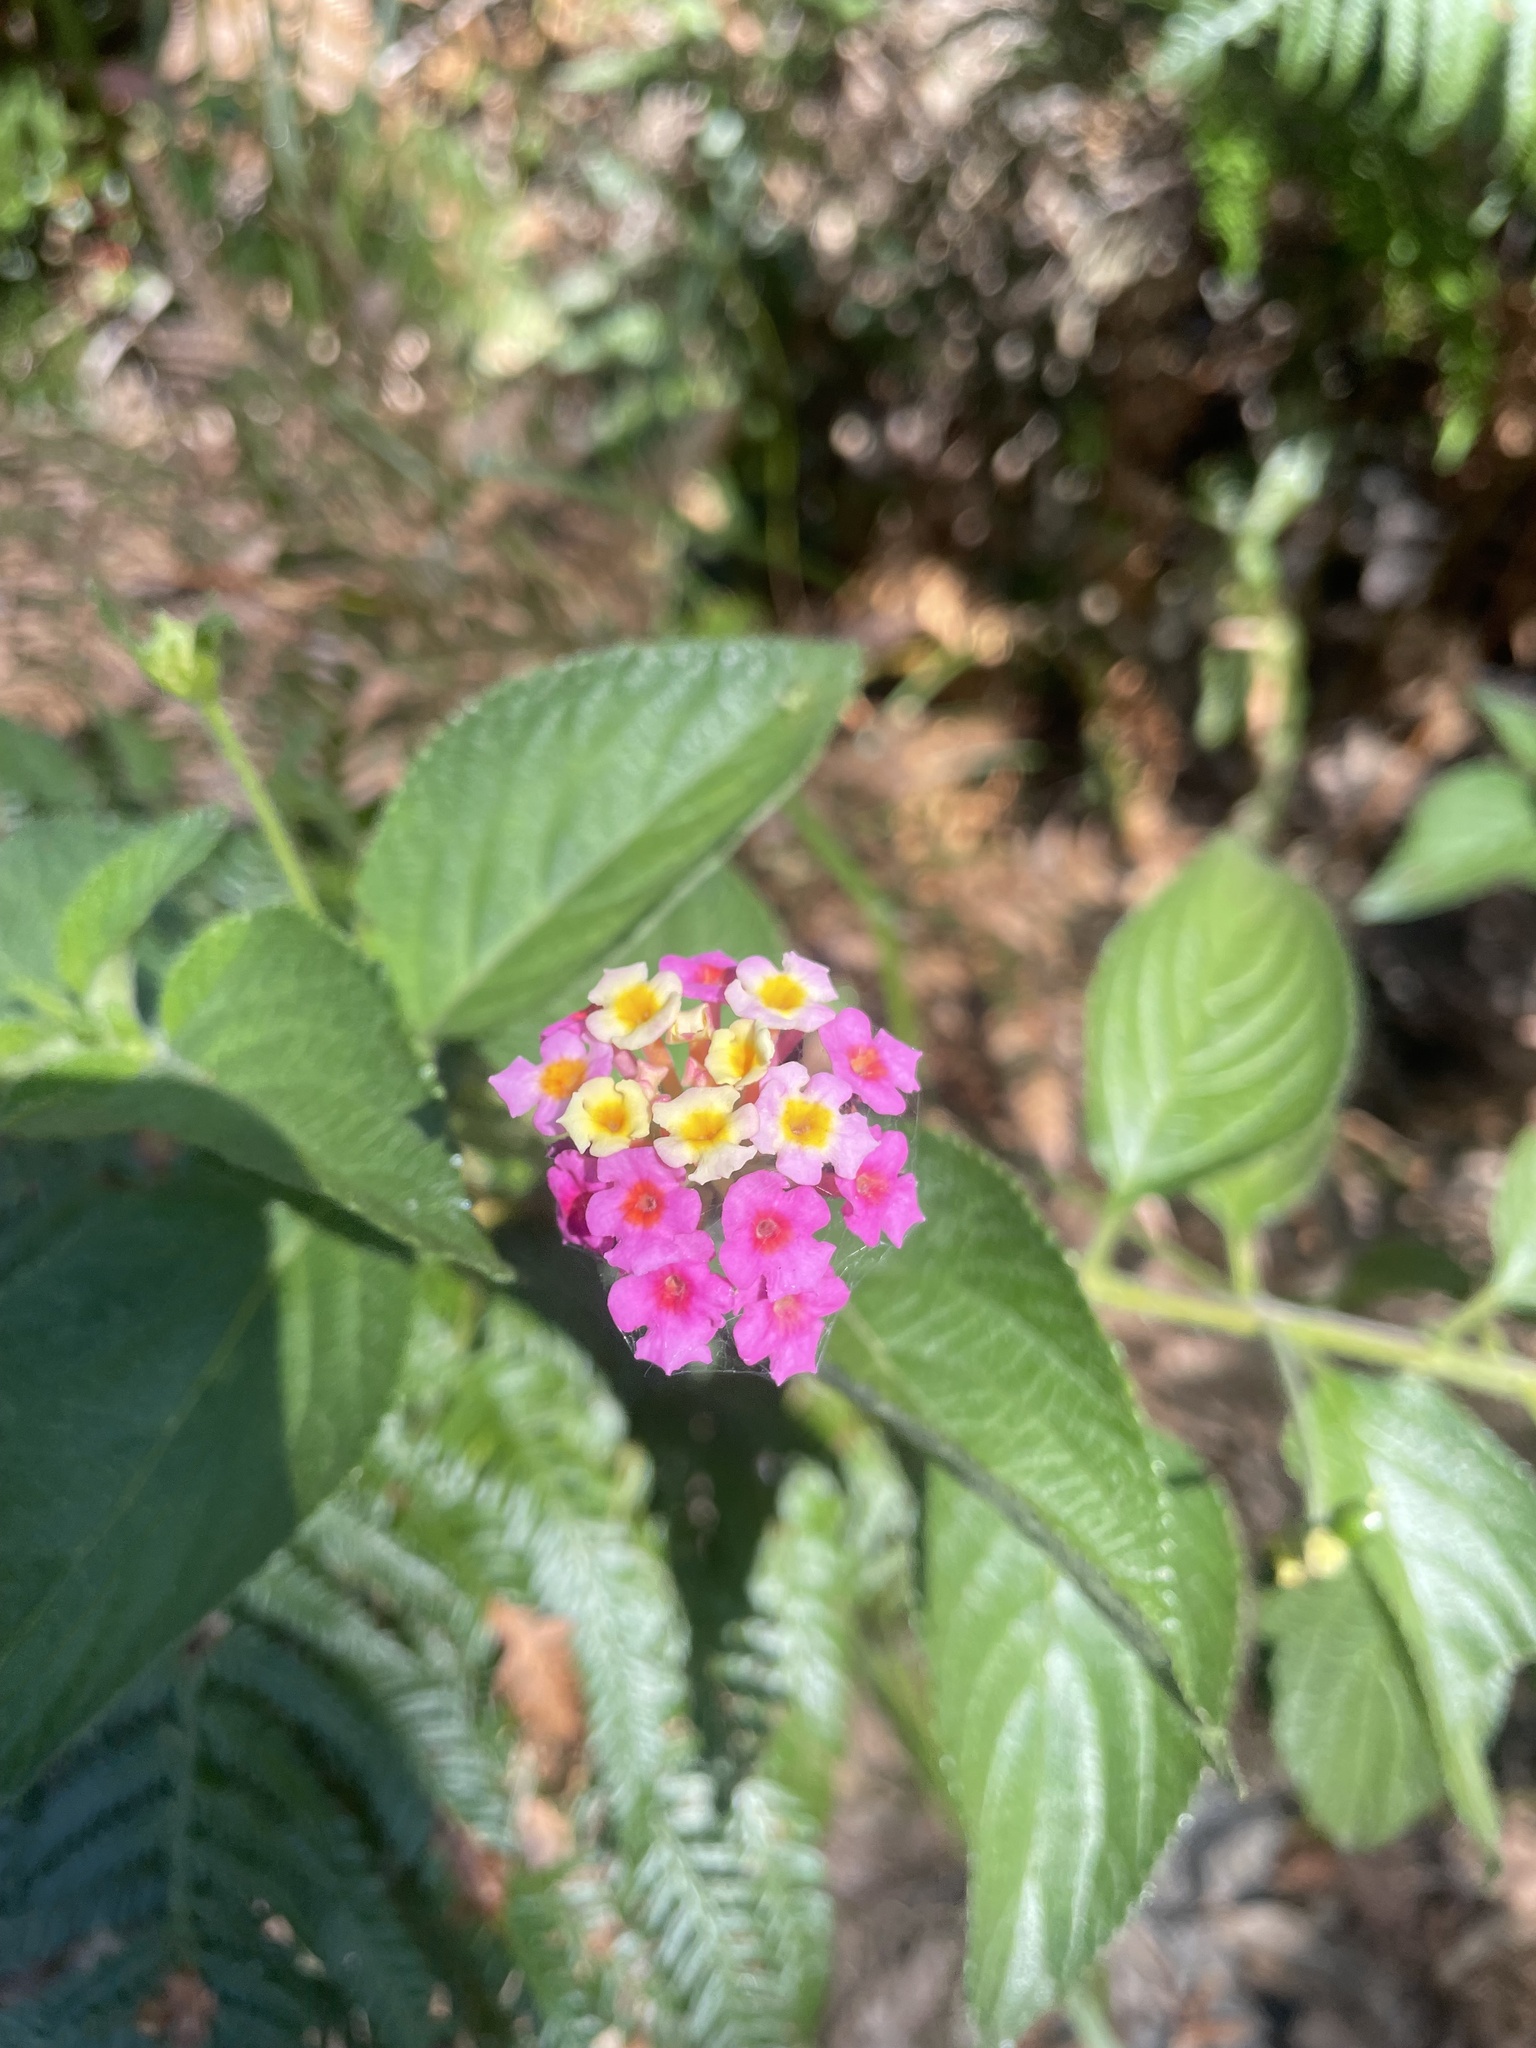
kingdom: Plantae
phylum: Tracheophyta
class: Magnoliopsida
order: Lamiales
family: Verbenaceae
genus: Lantana
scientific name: Lantana camara
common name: Lantana
